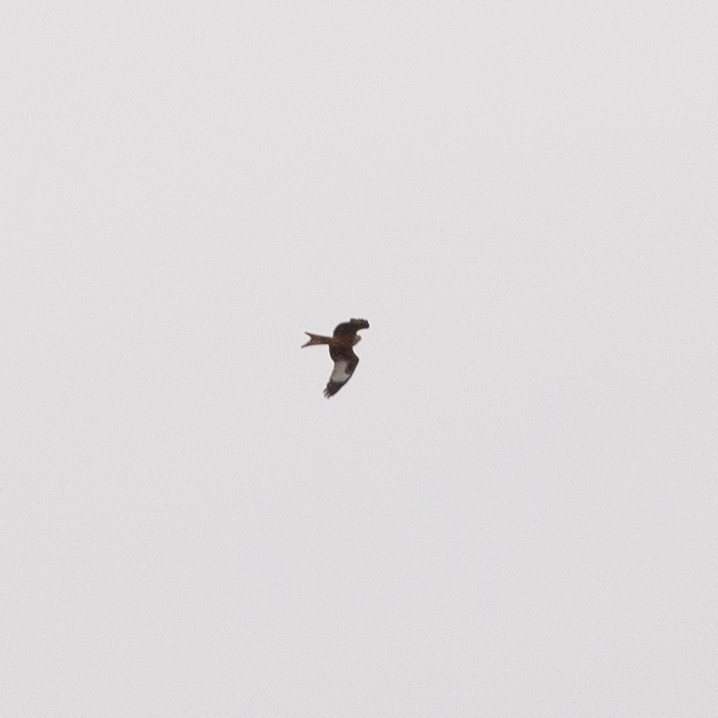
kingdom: Animalia
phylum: Chordata
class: Aves
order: Accipitriformes
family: Accipitridae
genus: Milvus
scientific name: Milvus milvus
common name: Red kite
